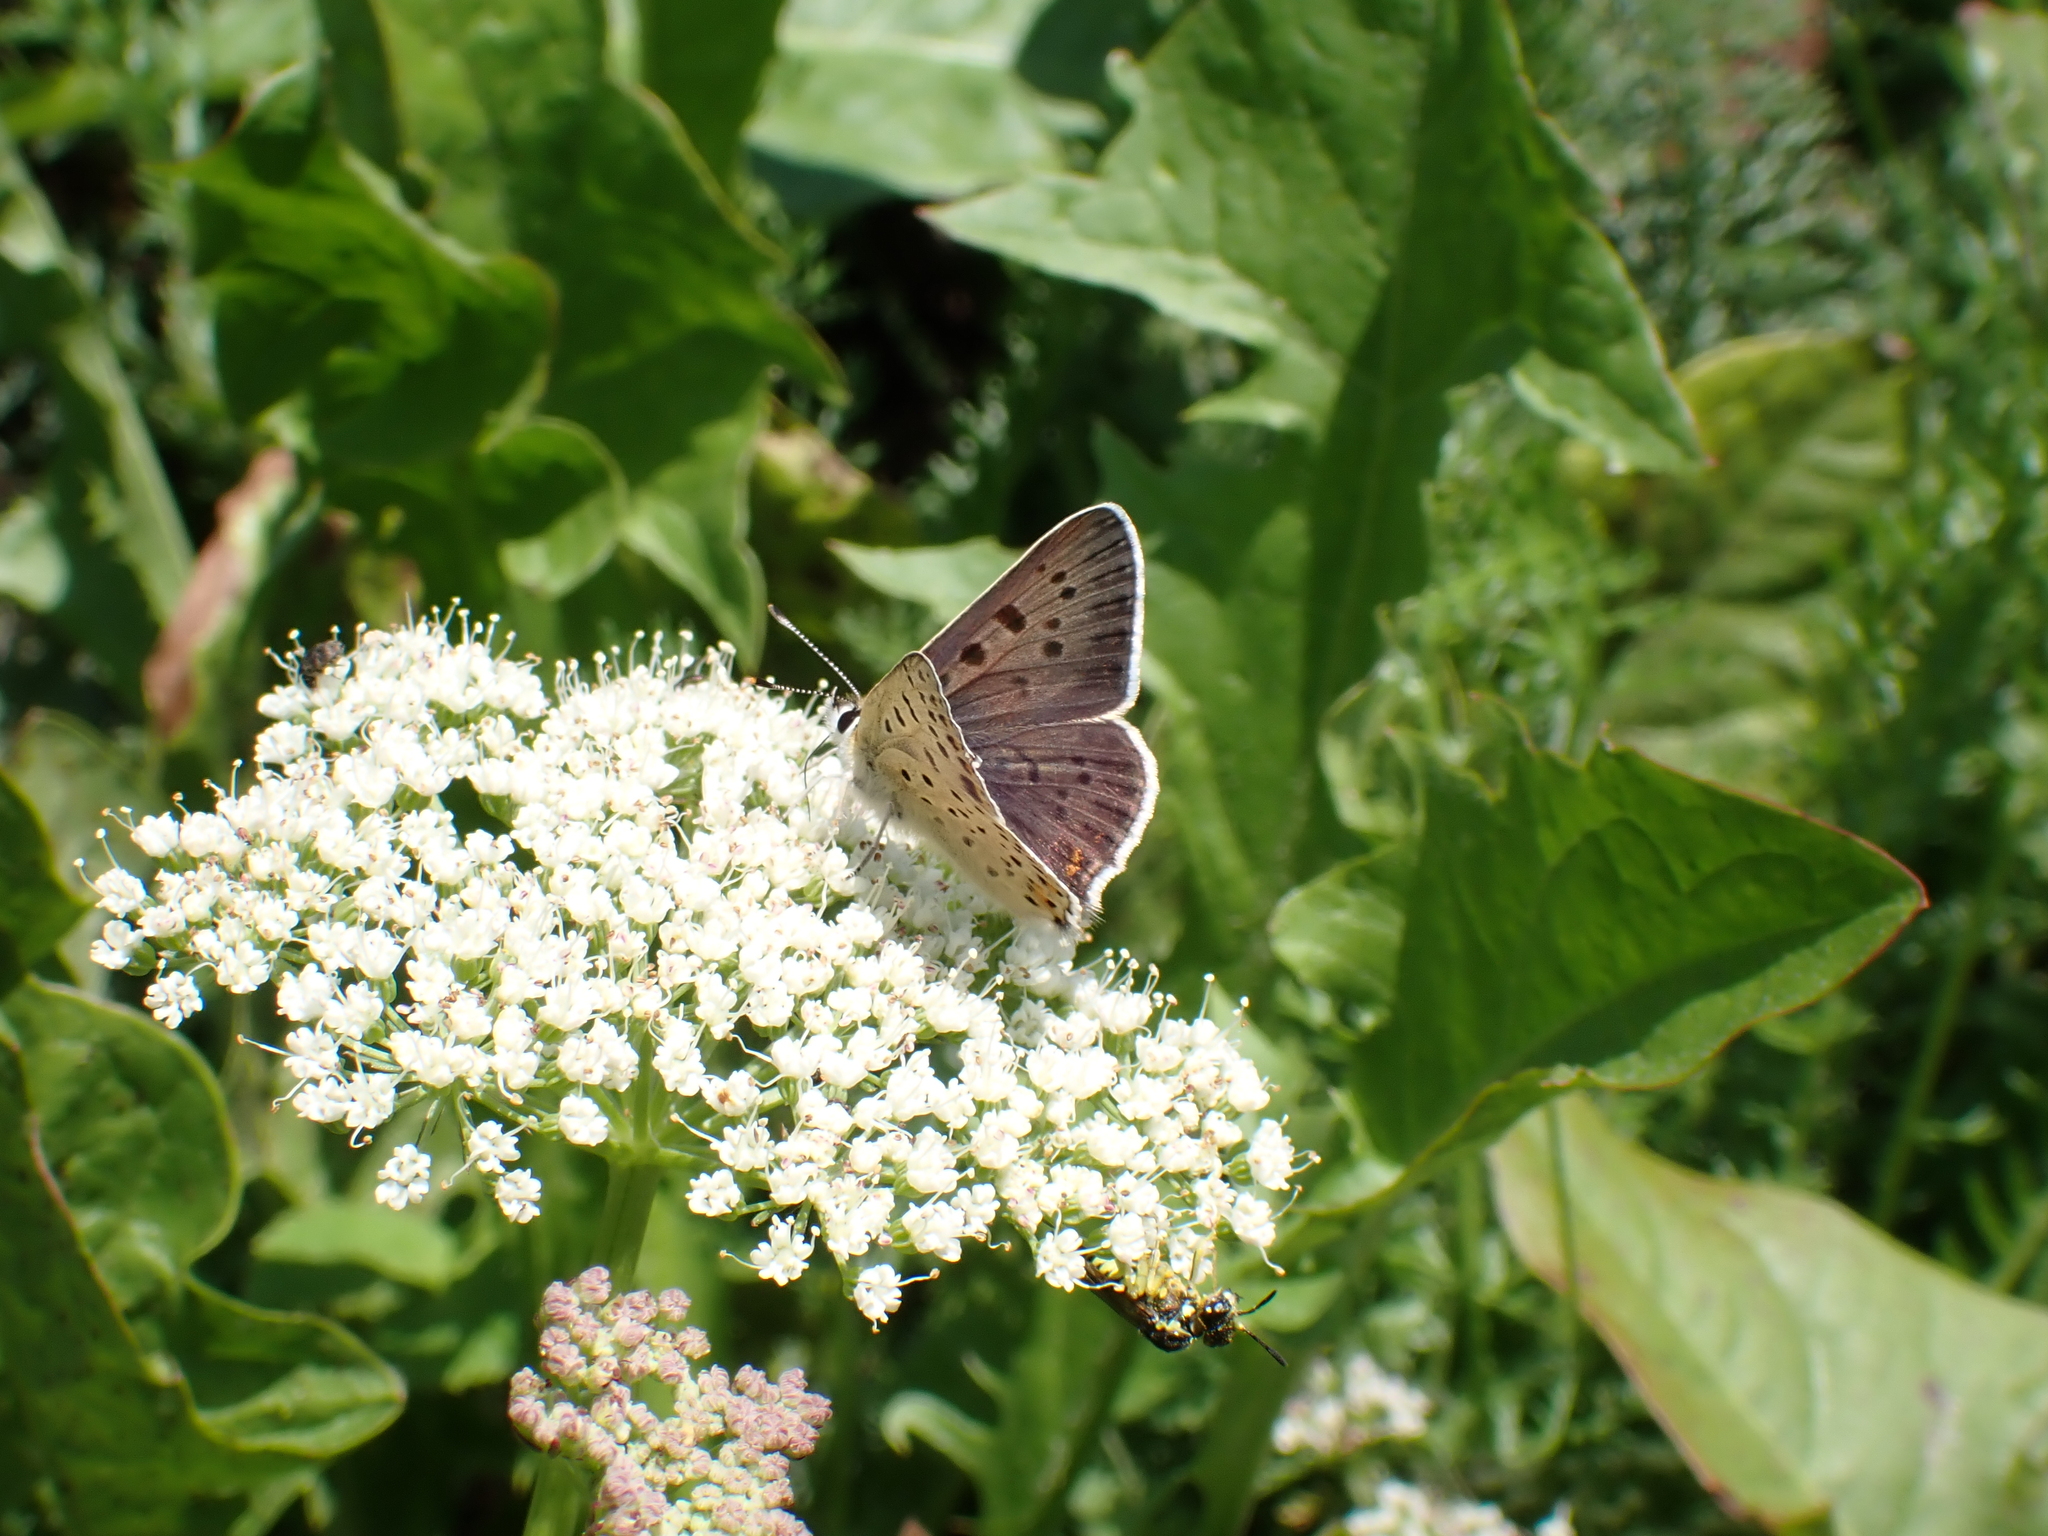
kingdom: Animalia
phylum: Arthropoda
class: Insecta
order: Lepidoptera
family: Lycaenidae
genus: Loweia
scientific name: Loweia tityrus
